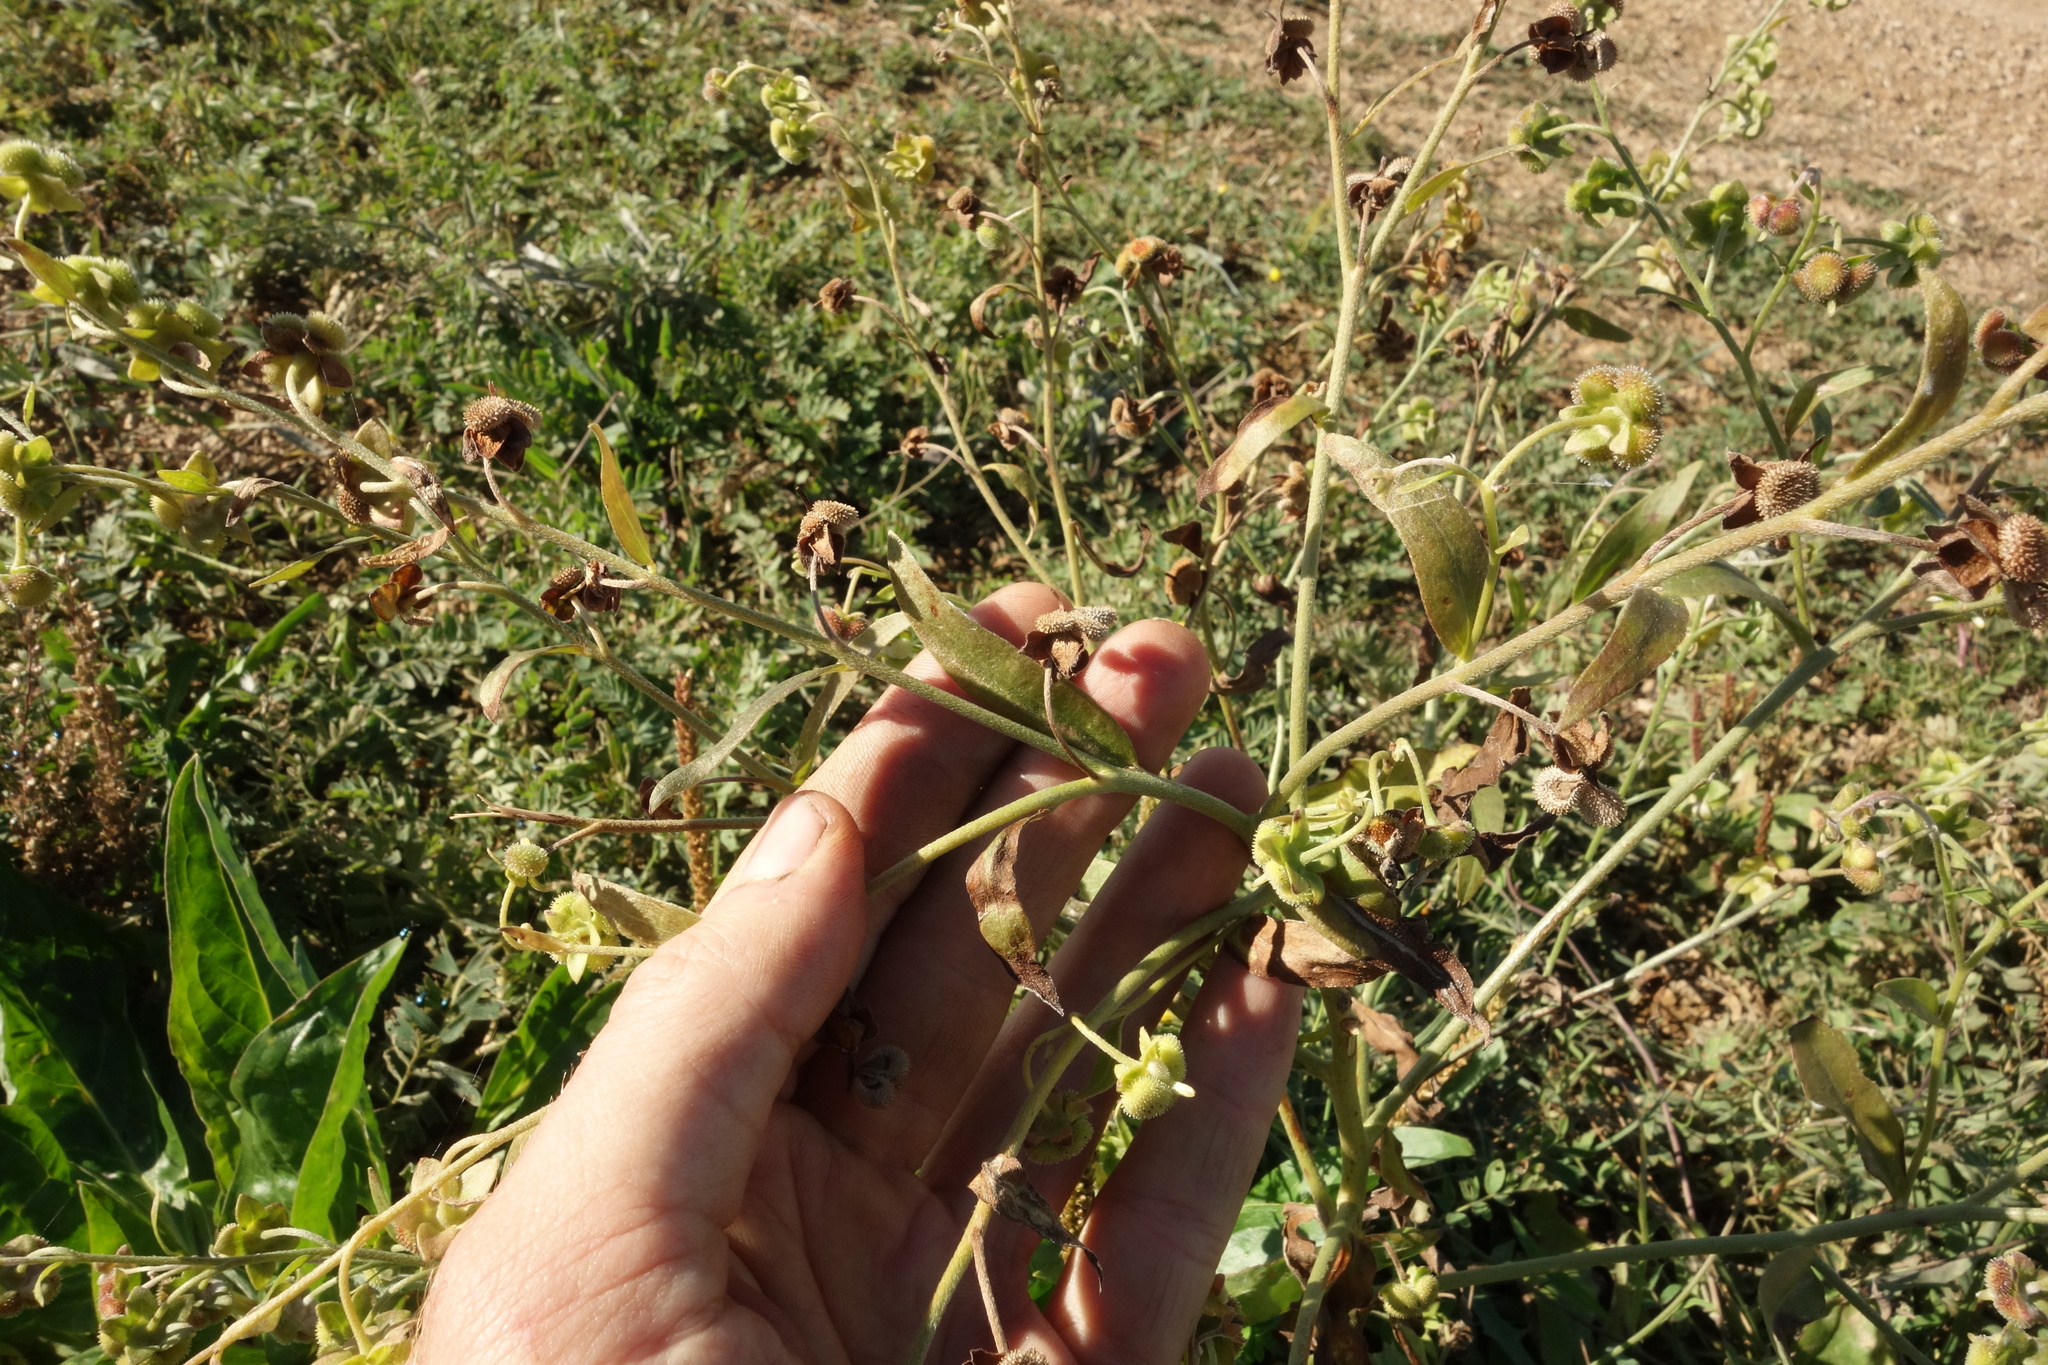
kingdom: Plantae
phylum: Tracheophyta
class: Magnoliopsida
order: Boraginales
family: Boraginaceae
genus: Cynoglossum
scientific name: Cynoglossum divaricatum
